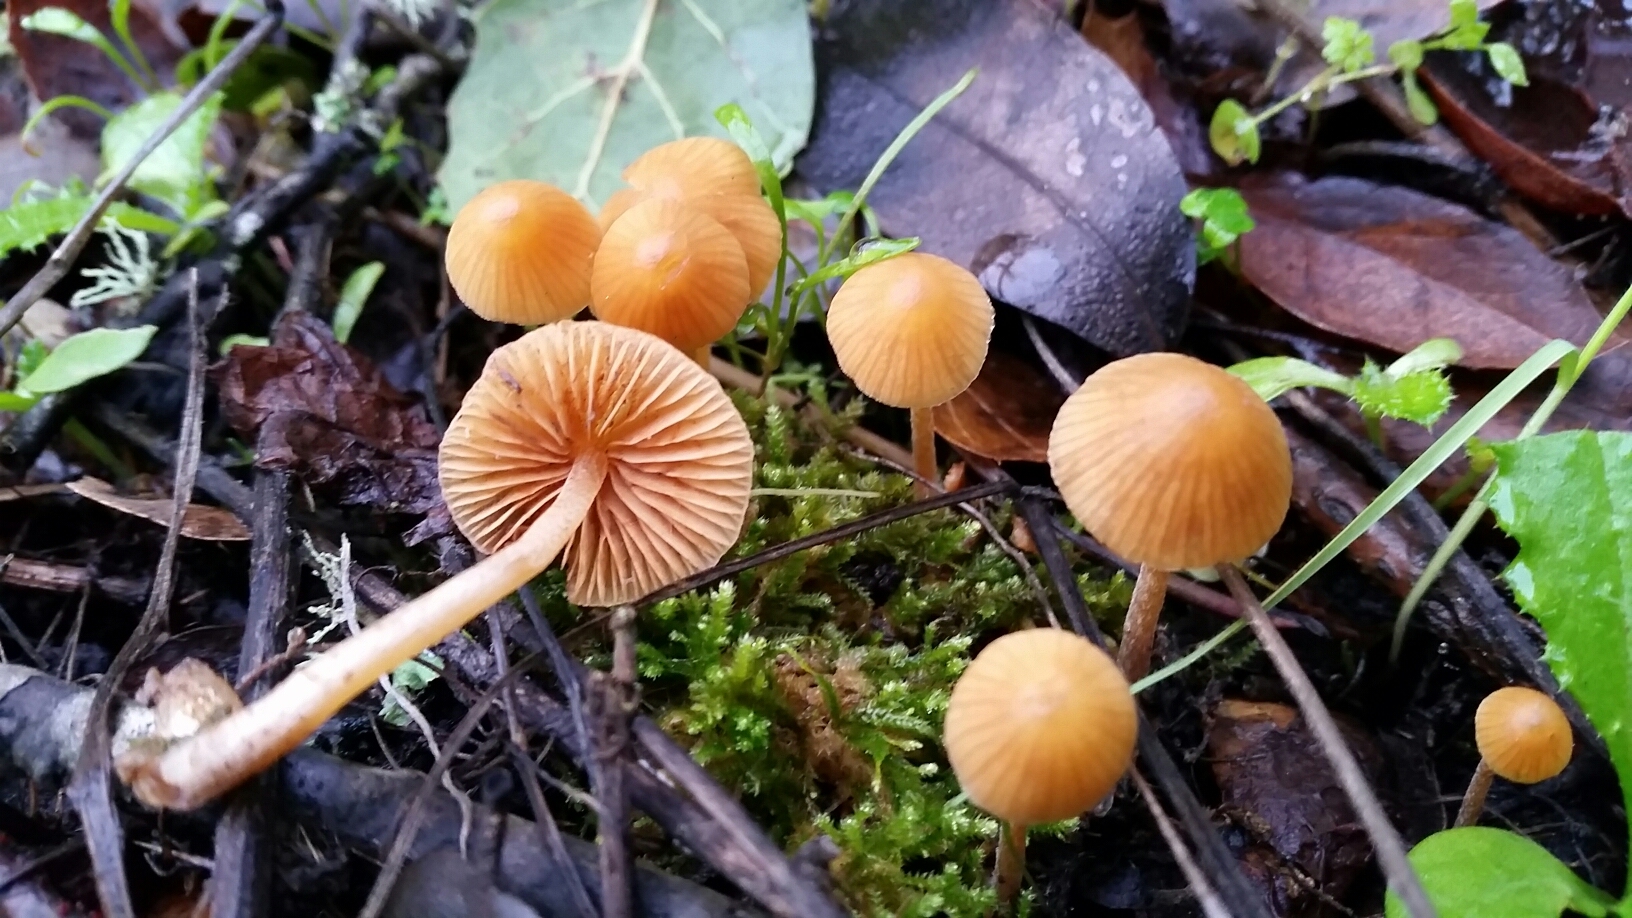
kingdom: Fungi
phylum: Basidiomycota
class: Agaricomycetes
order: Agaricales
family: Hymenogastraceae
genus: Galerina
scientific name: Galerina semilanceata
